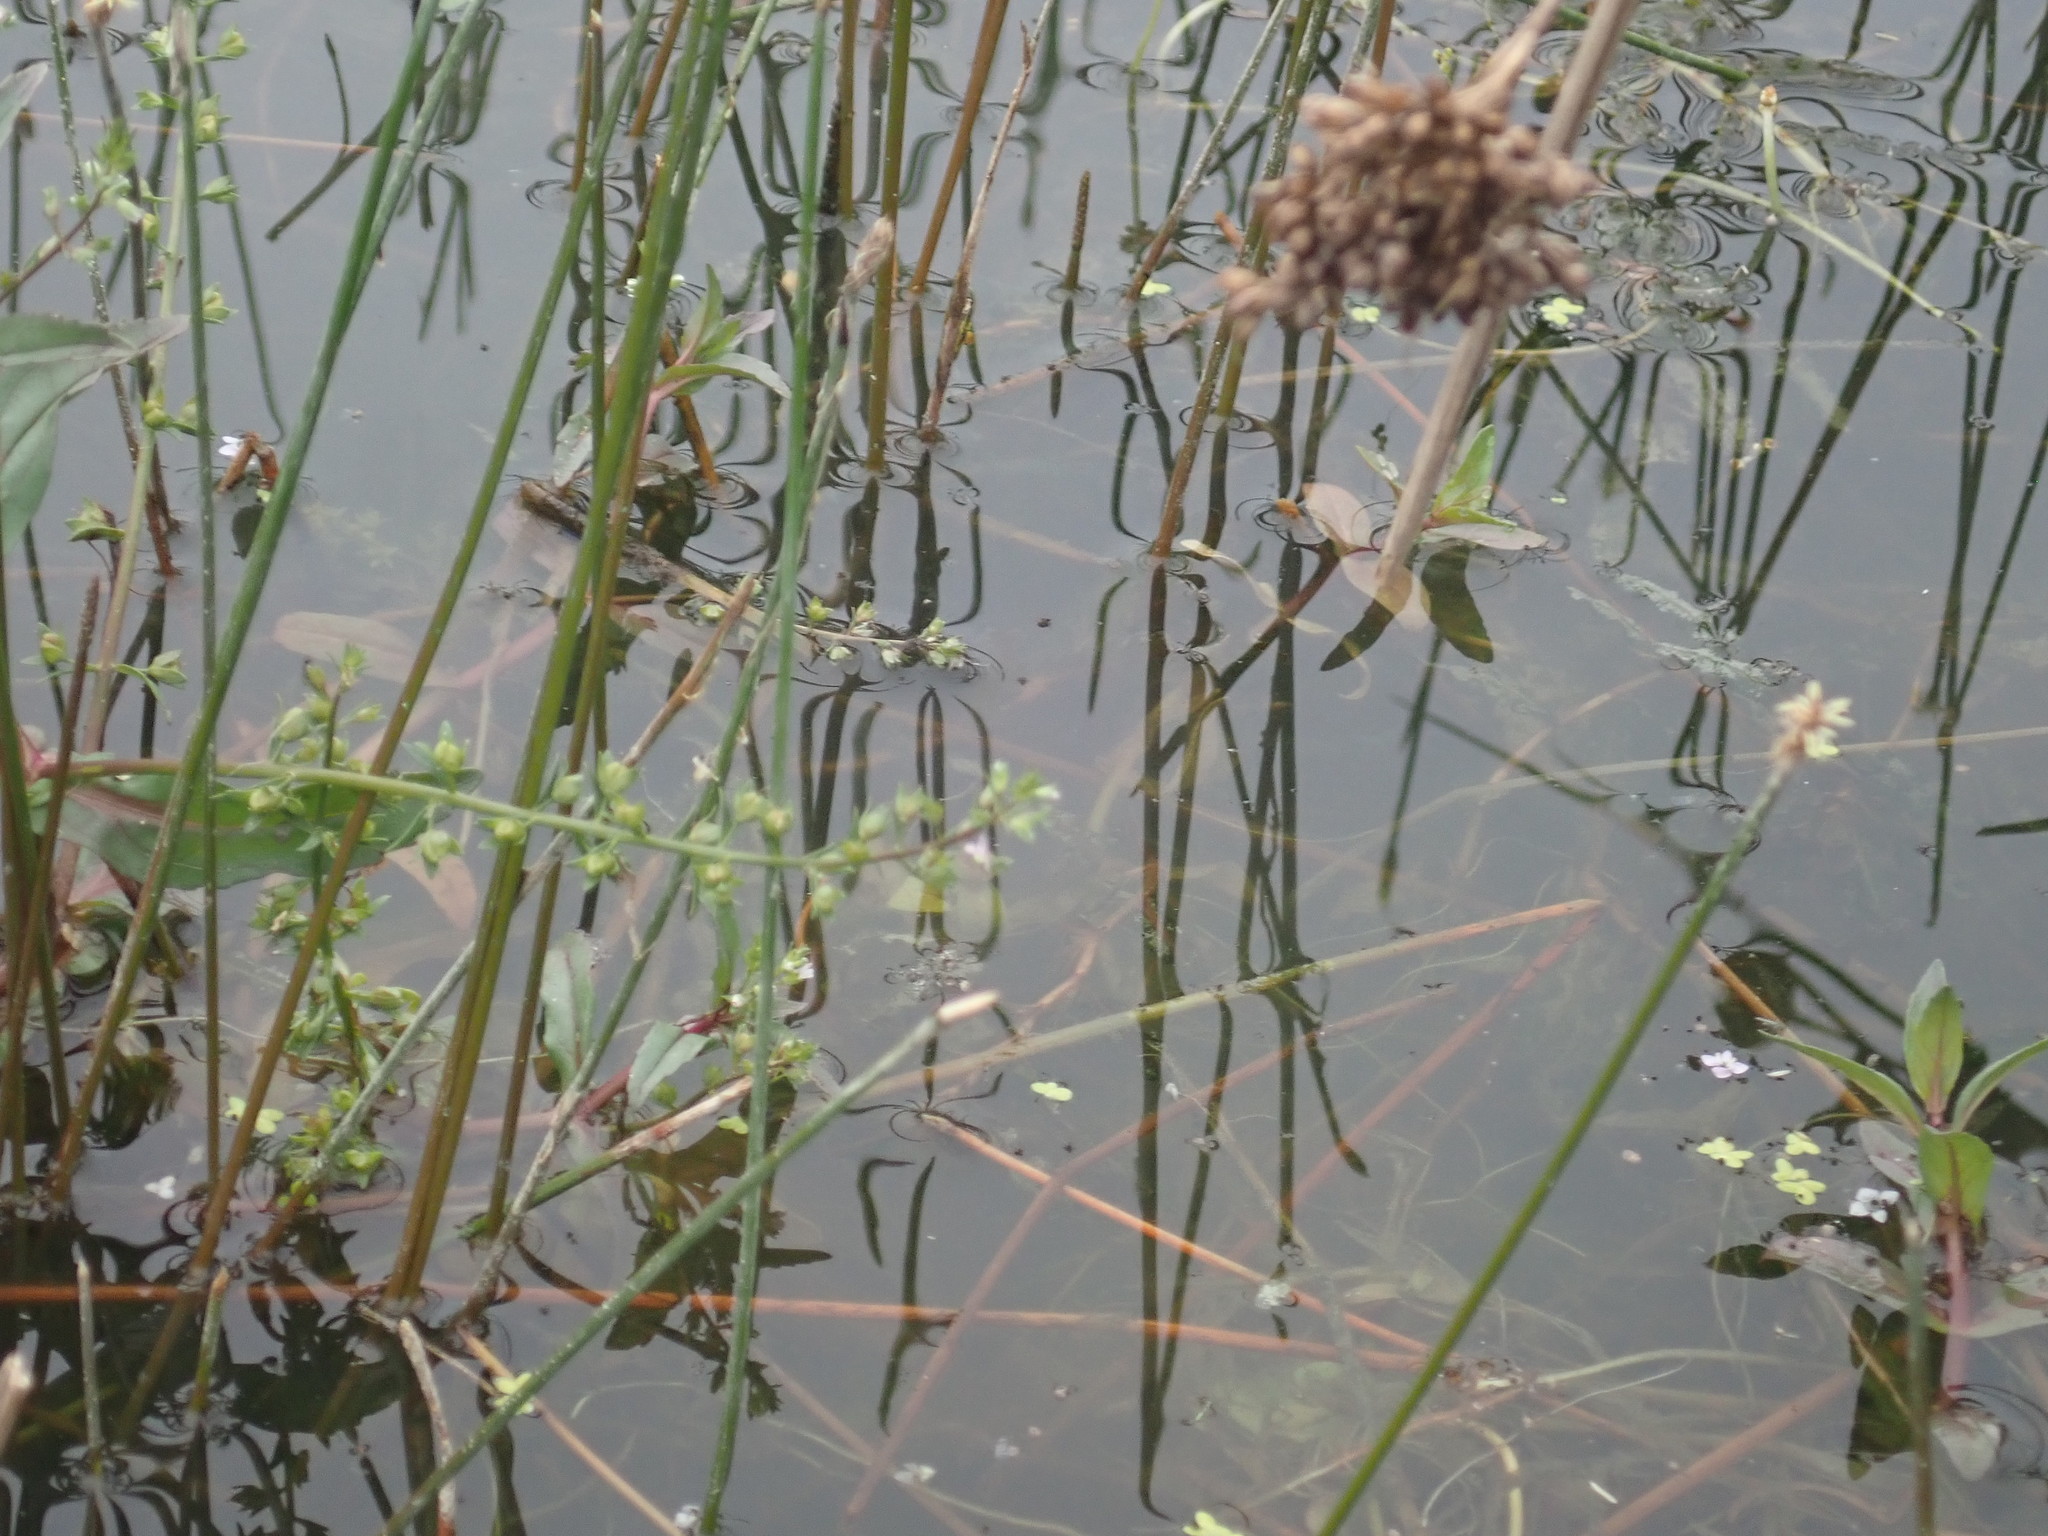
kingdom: Plantae
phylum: Tracheophyta
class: Magnoliopsida
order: Lamiales
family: Plantaginaceae
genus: Veronica
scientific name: Veronica anagallis-aquatica
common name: Water speedwell
